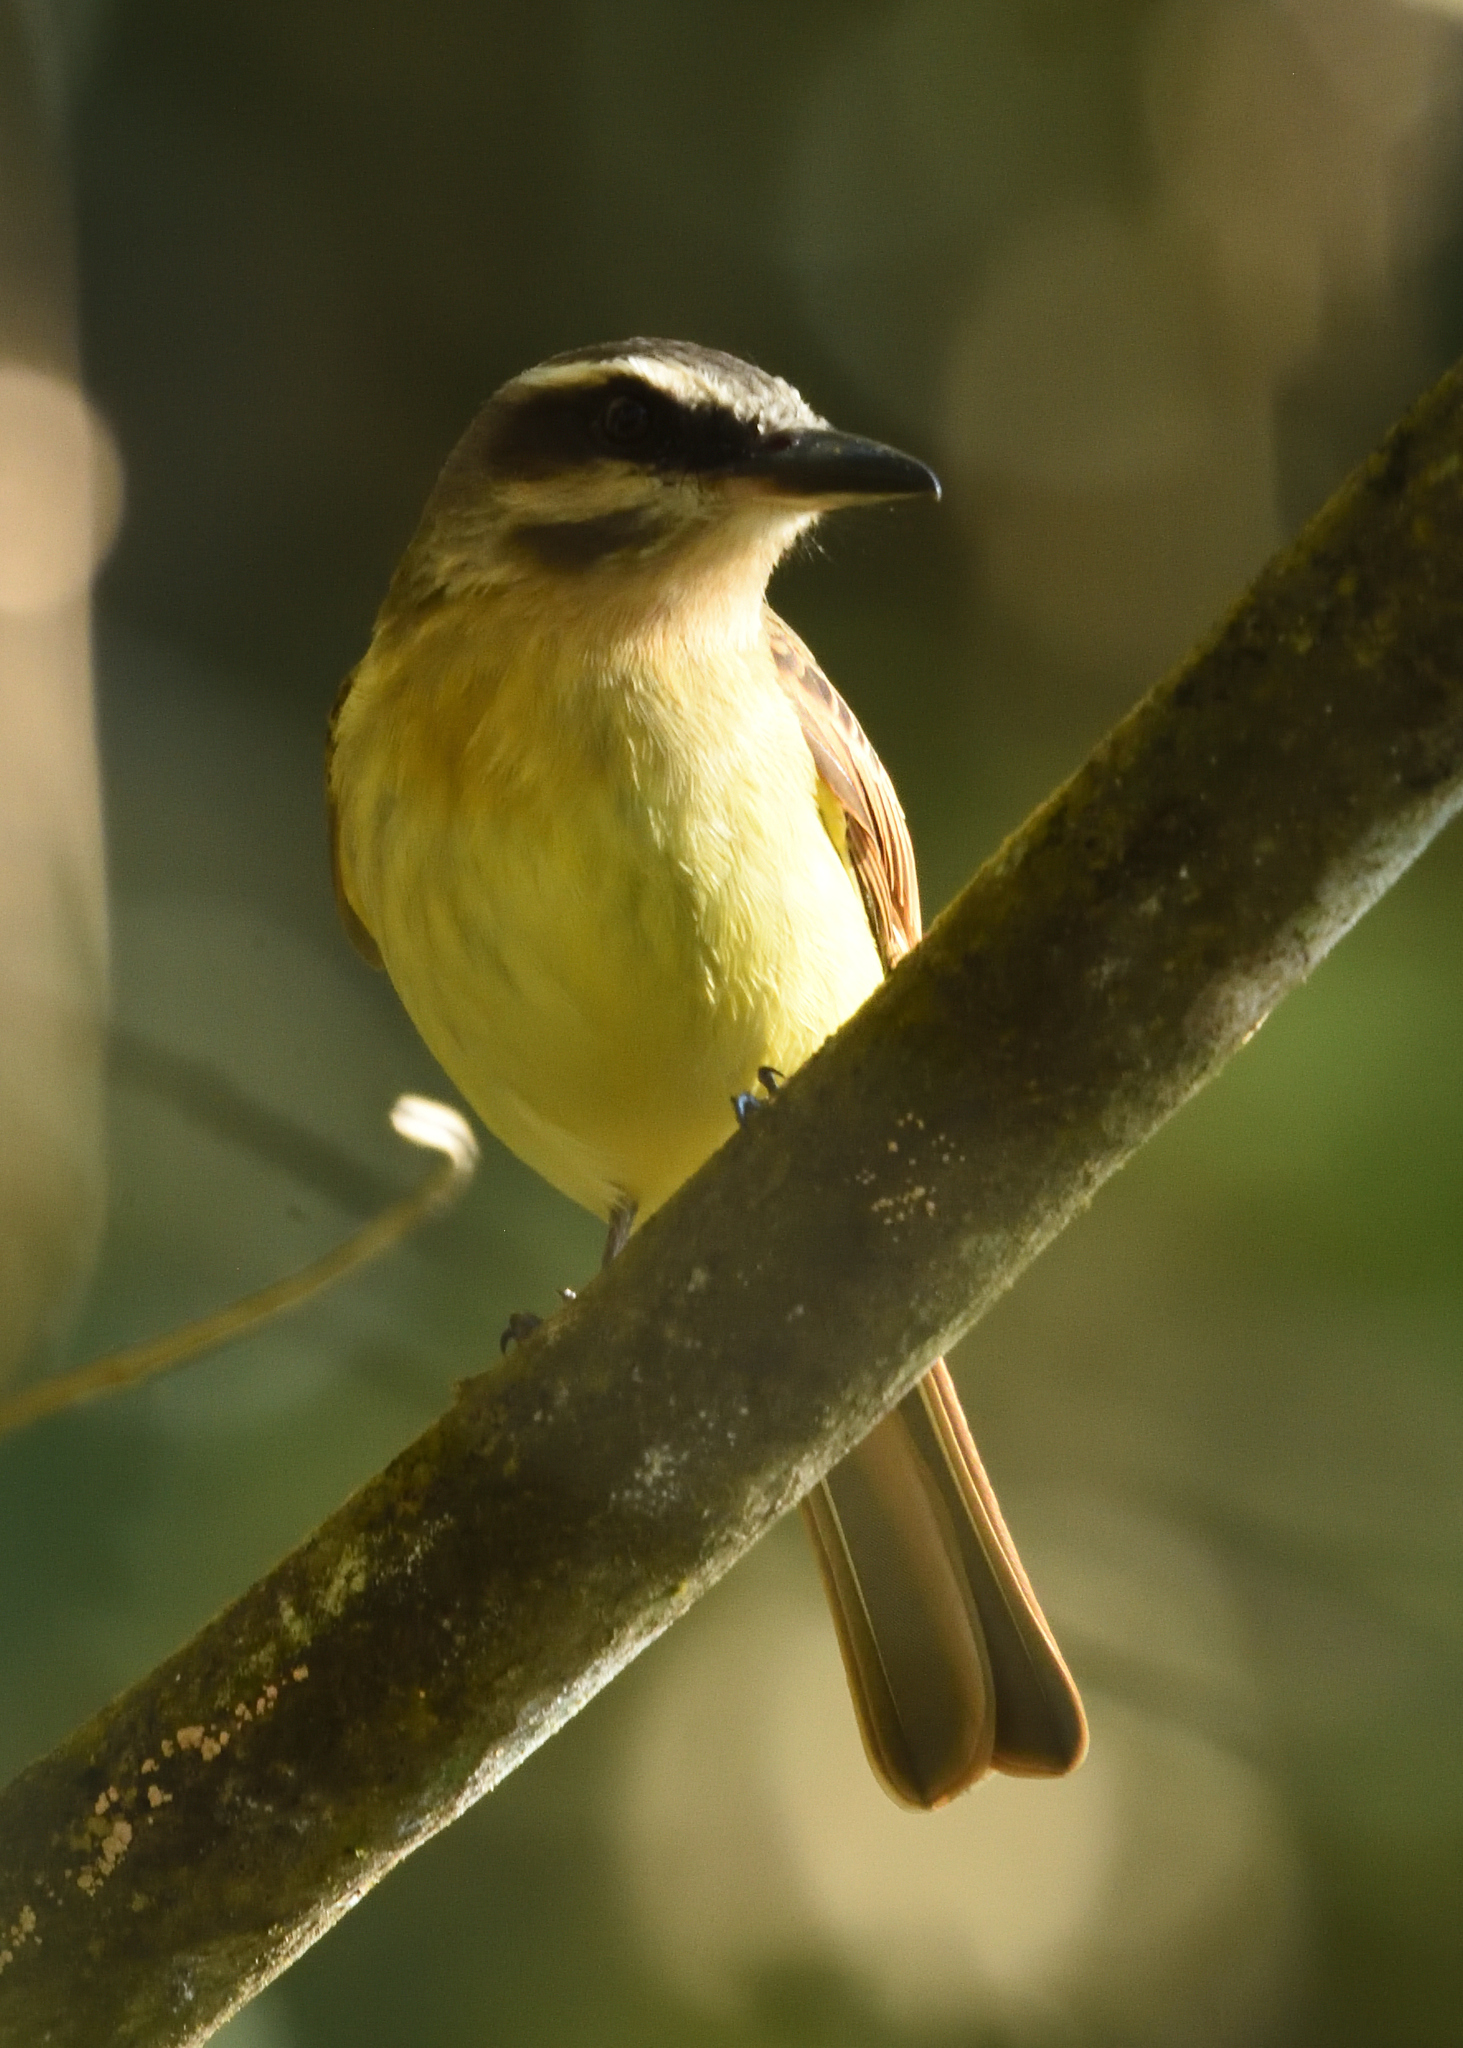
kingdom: Animalia
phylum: Chordata
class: Aves
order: Passeriformes
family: Tyrannidae
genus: Myiodynastes
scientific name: Myiodynastes hemichrysus
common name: Golden-bellied flycatcher
